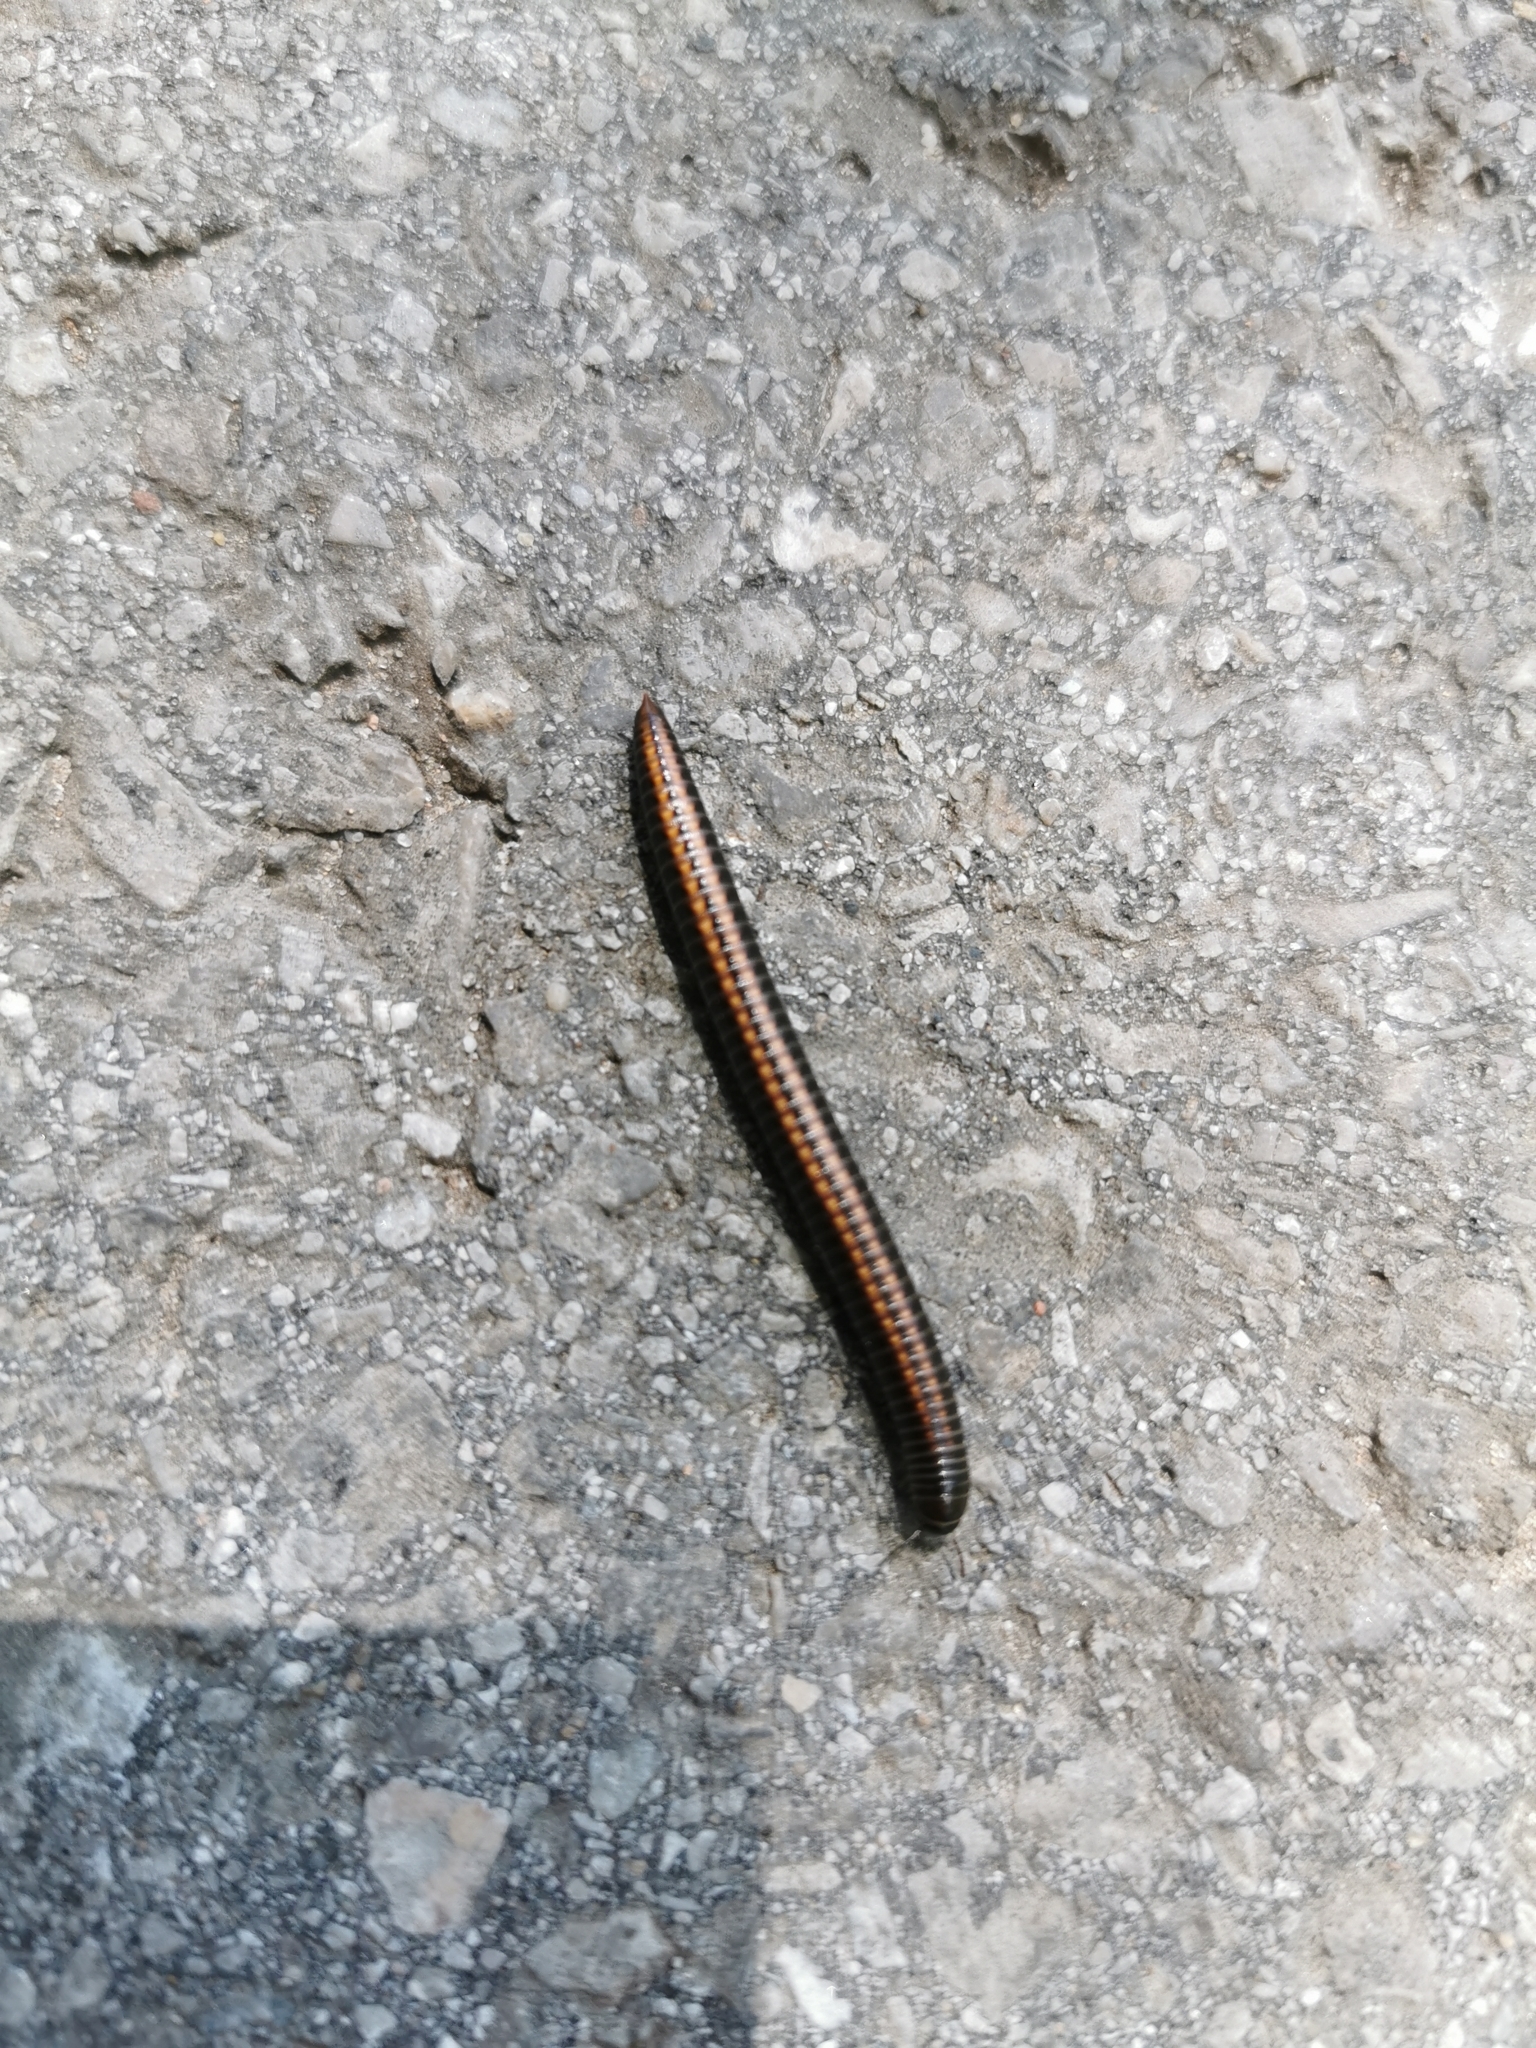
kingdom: Animalia
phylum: Arthropoda
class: Diplopoda
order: Julida
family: Julidae
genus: Ommatoiulus
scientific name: Ommatoiulus sabulosus
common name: Striped millipede
